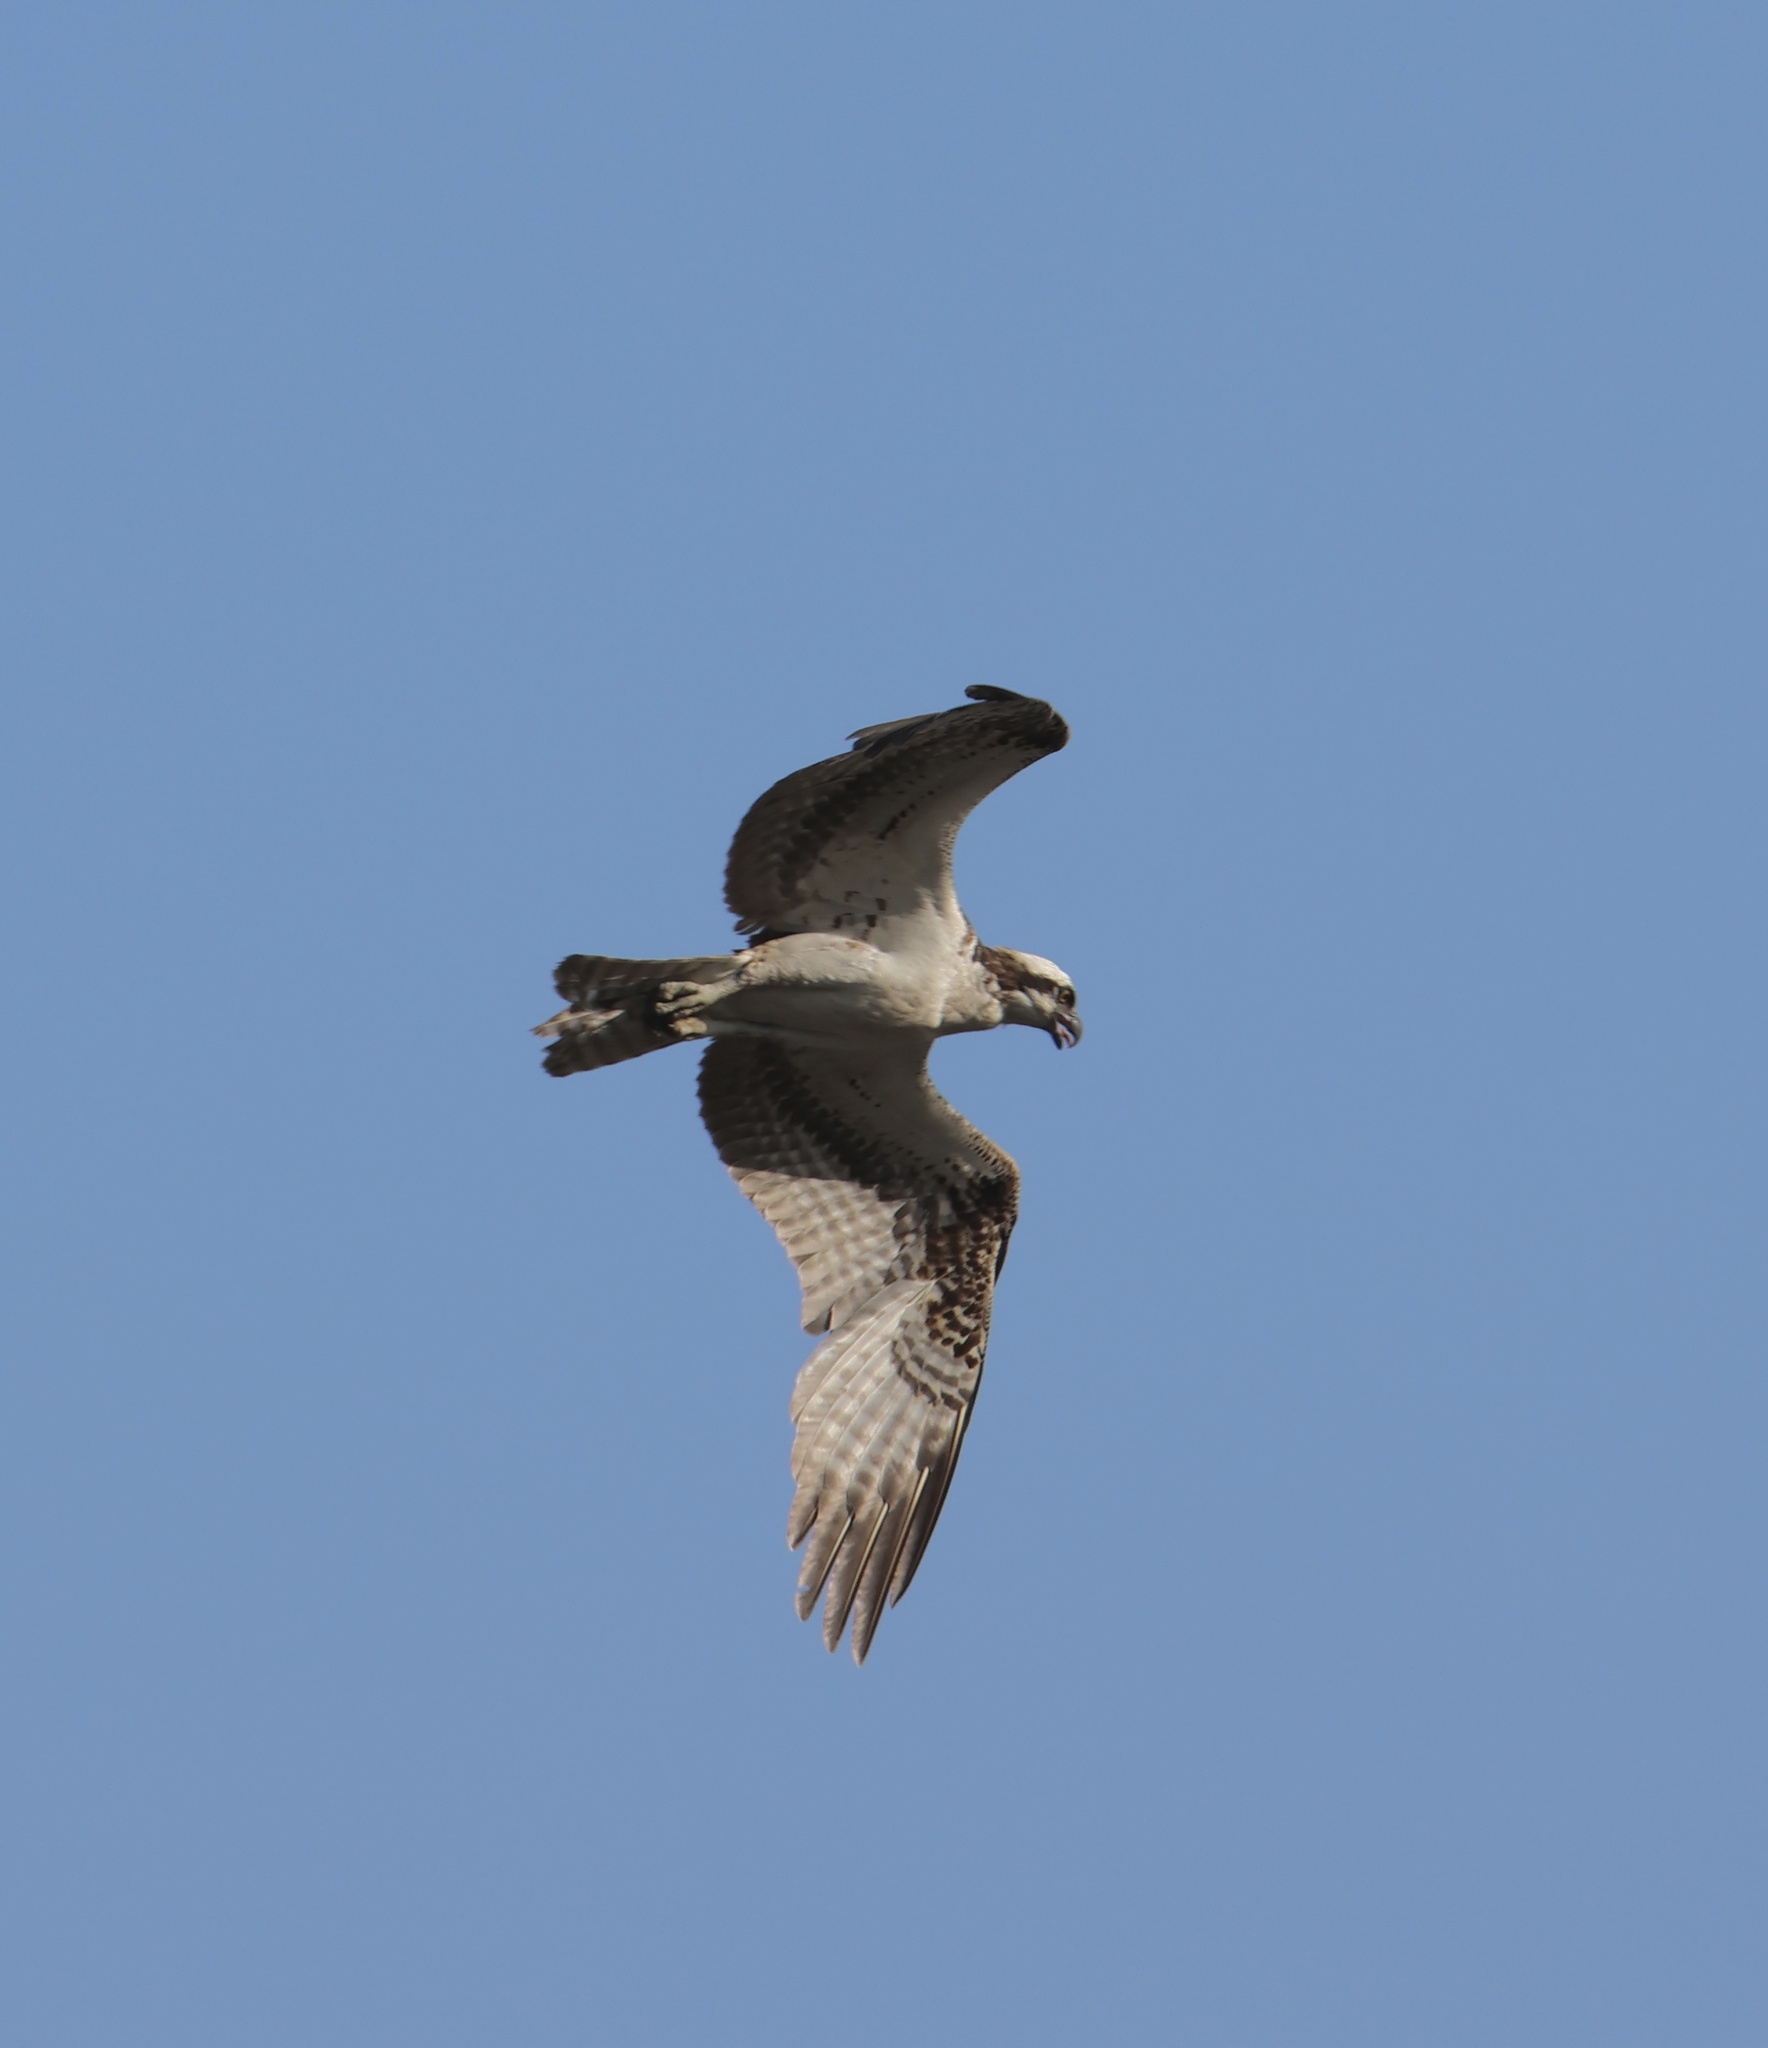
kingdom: Animalia
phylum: Chordata
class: Aves
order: Accipitriformes
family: Pandionidae
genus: Pandion
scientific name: Pandion haliaetus
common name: Osprey
